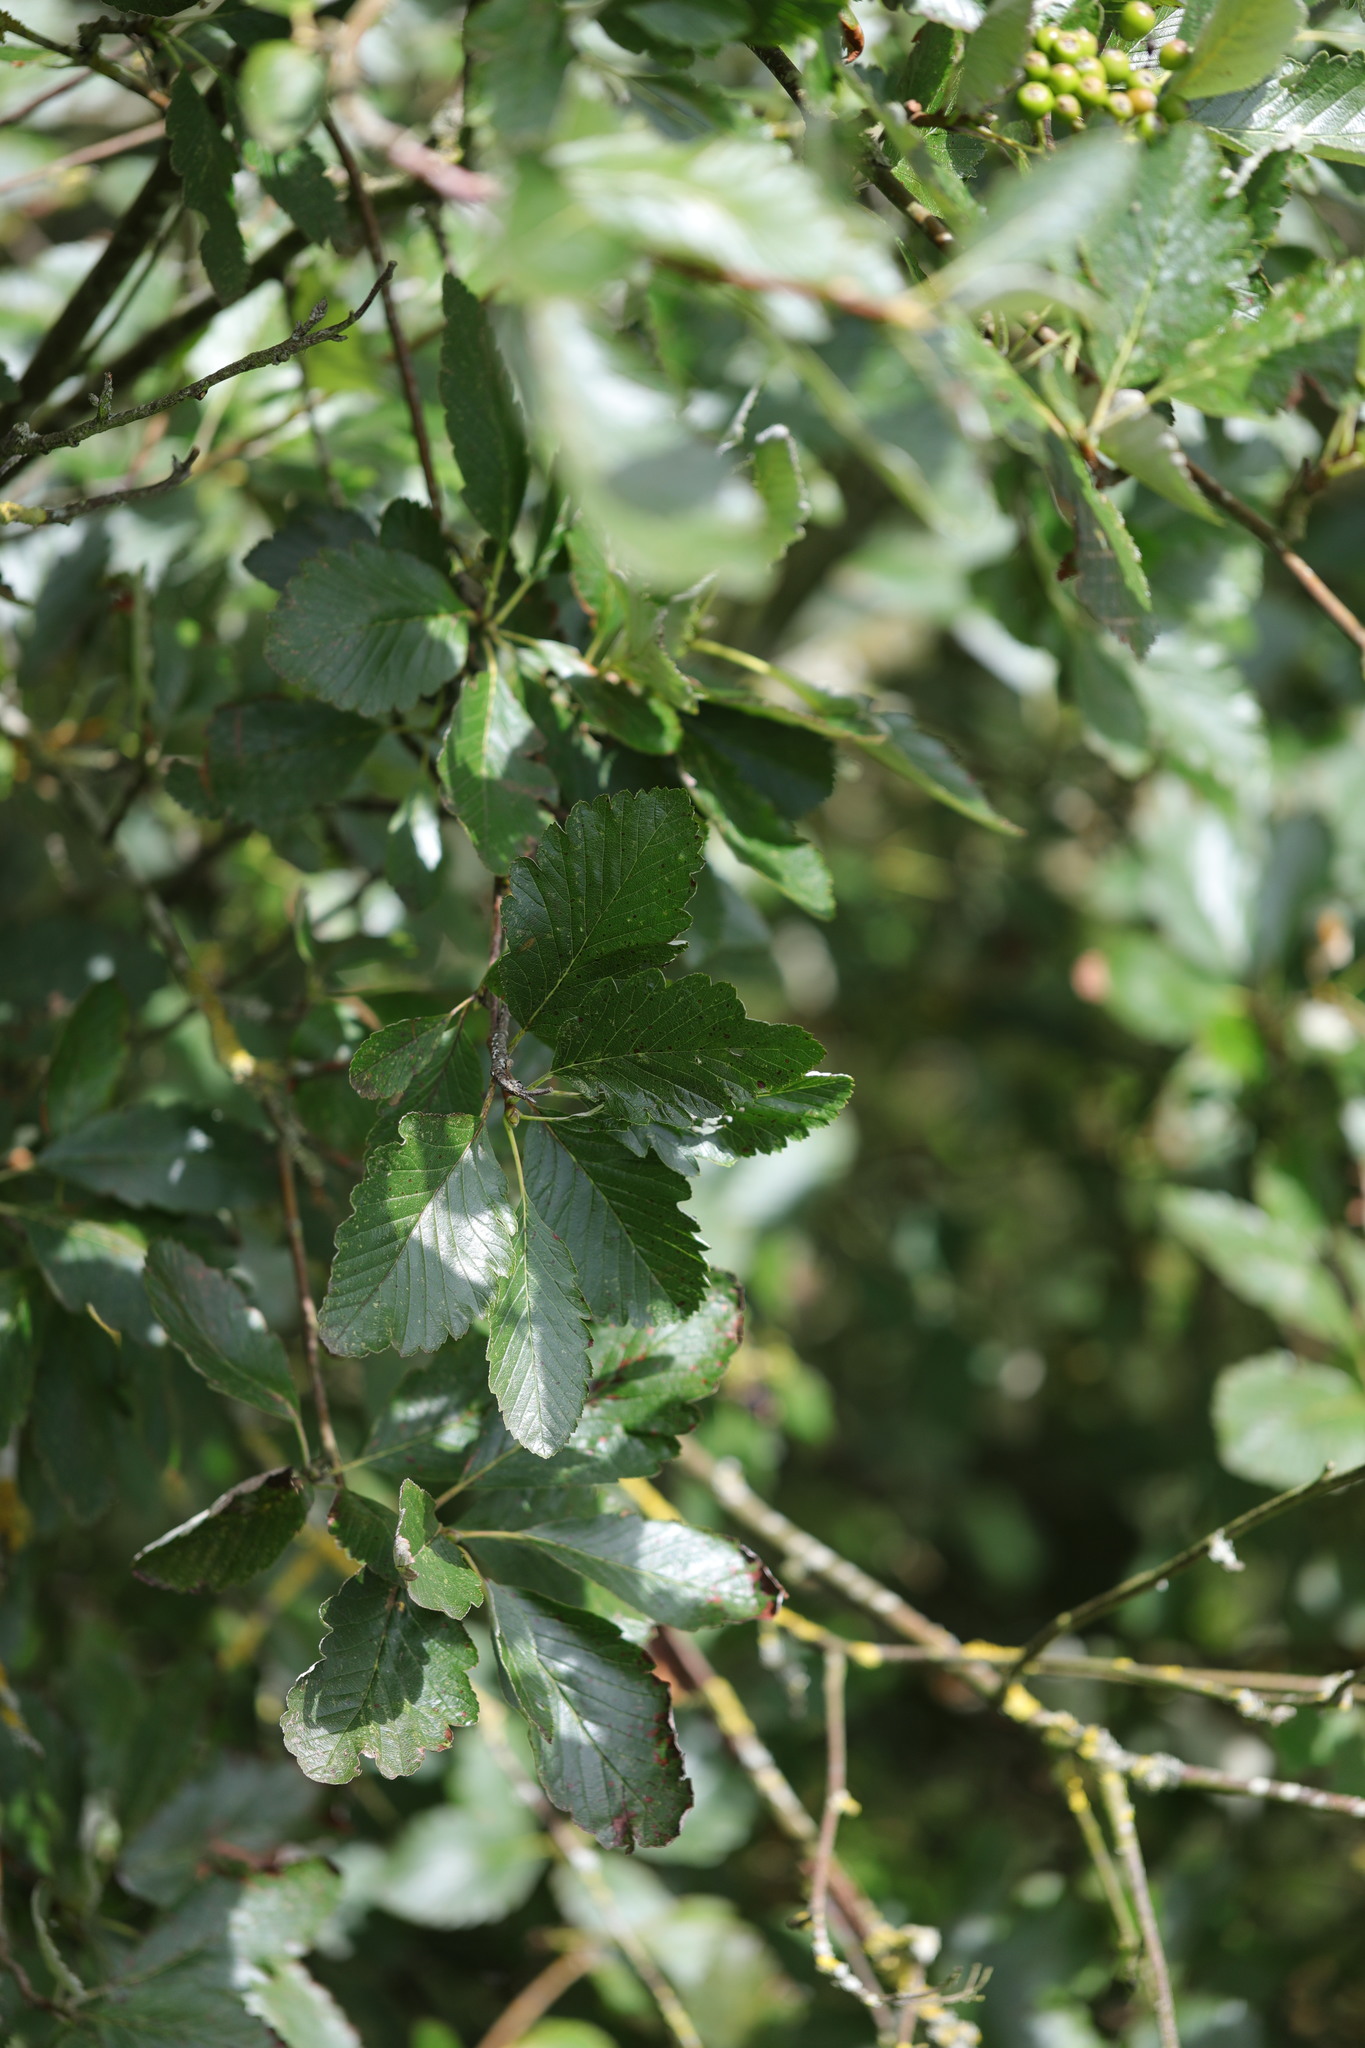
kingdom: Plantae
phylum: Tracheophyta
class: Magnoliopsida
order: Rosales
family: Rosaceae
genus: Scandosorbus
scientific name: Scandosorbus intermedia
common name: Swedish whitebeam
